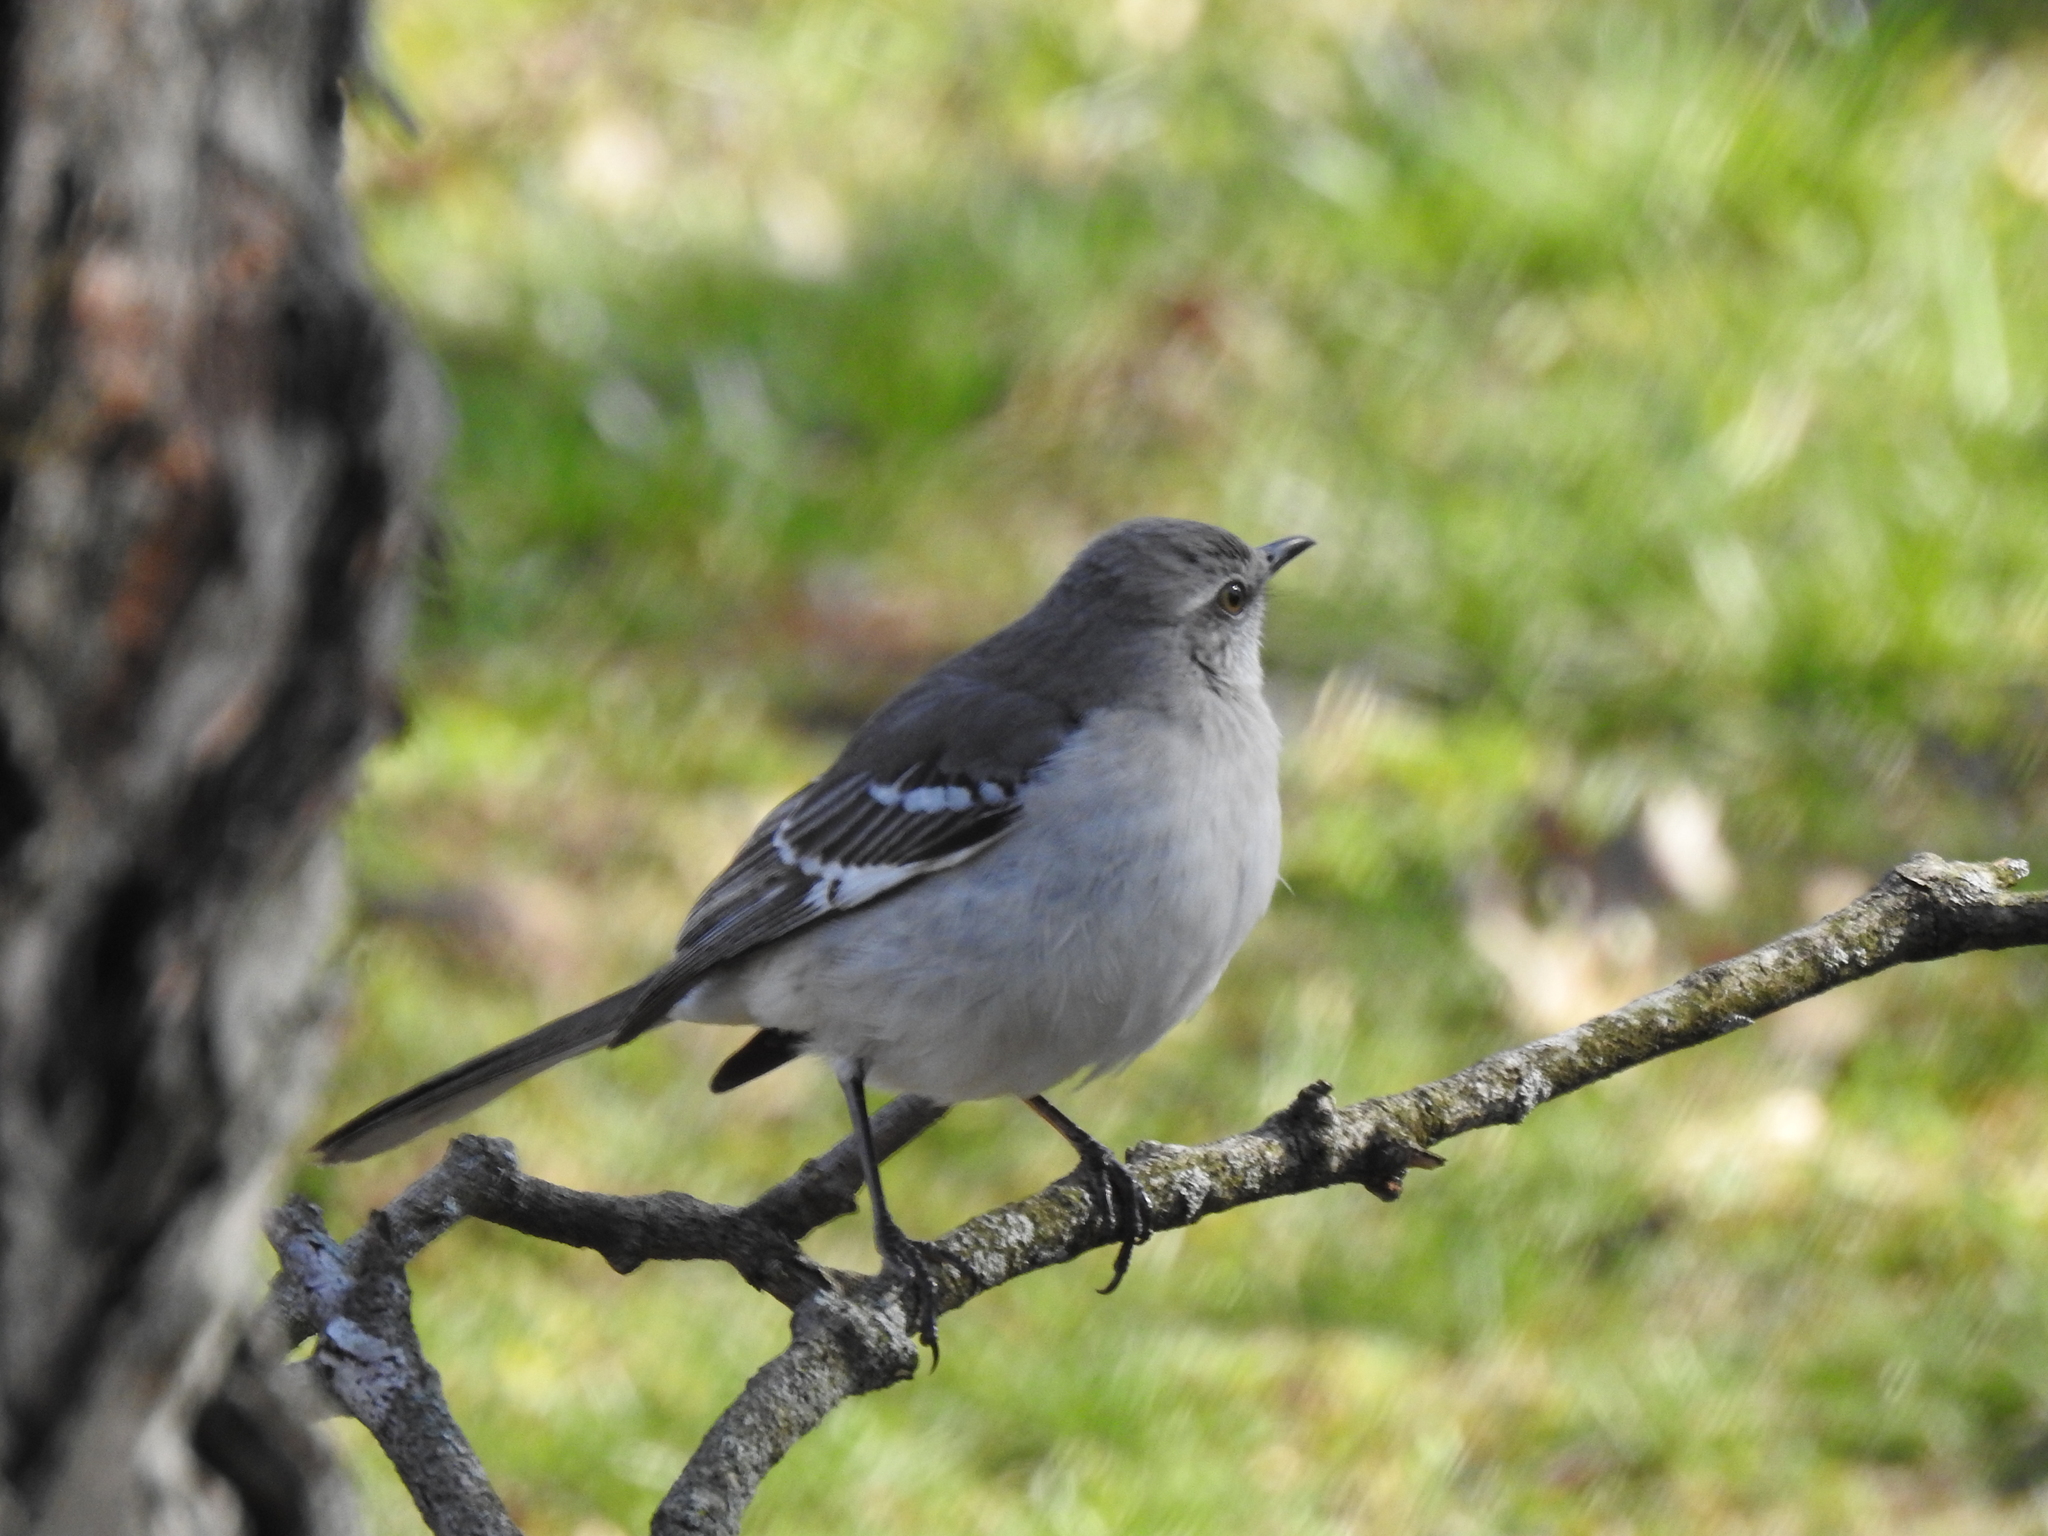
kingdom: Animalia
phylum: Chordata
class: Aves
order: Passeriformes
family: Mimidae
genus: Mimus
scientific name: Mimus polyglottos
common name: Northern mockingbird
